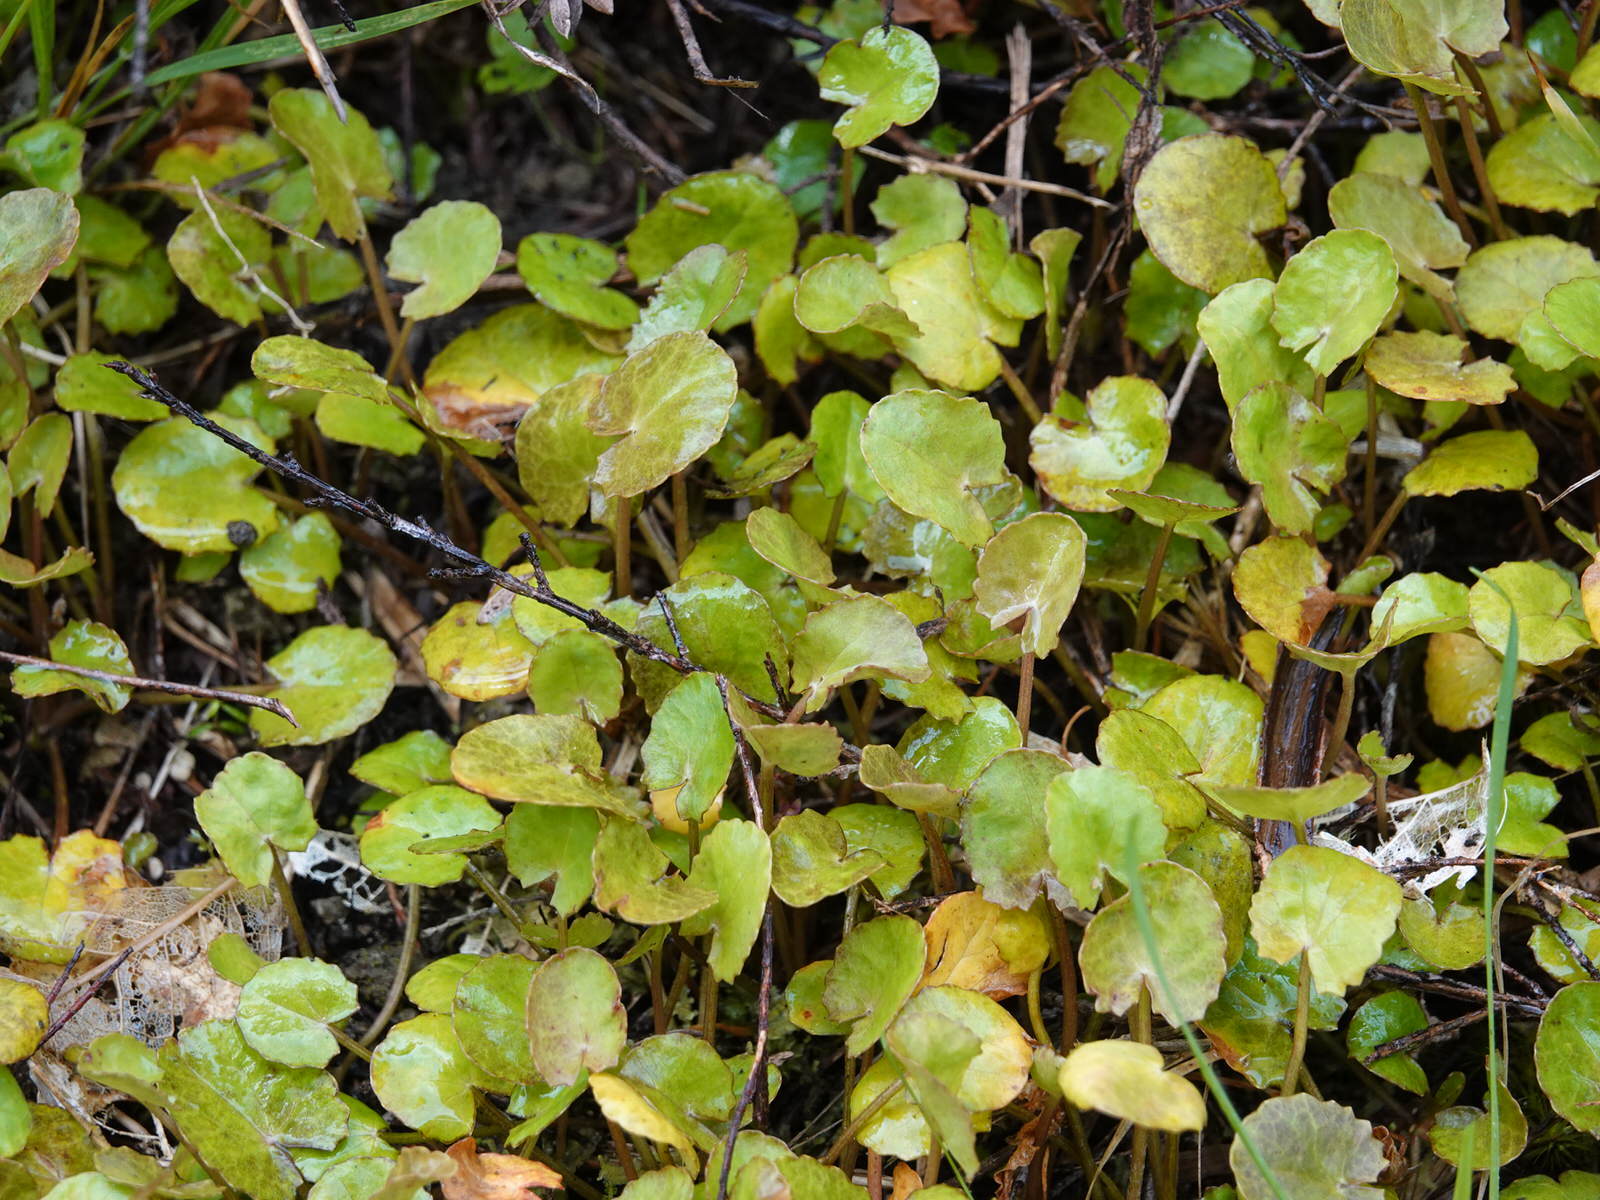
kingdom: Plantae
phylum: Tracheophyta
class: Magnoliopsida
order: Apiales
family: Apiaceae
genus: Centella
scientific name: Centella uniflora
